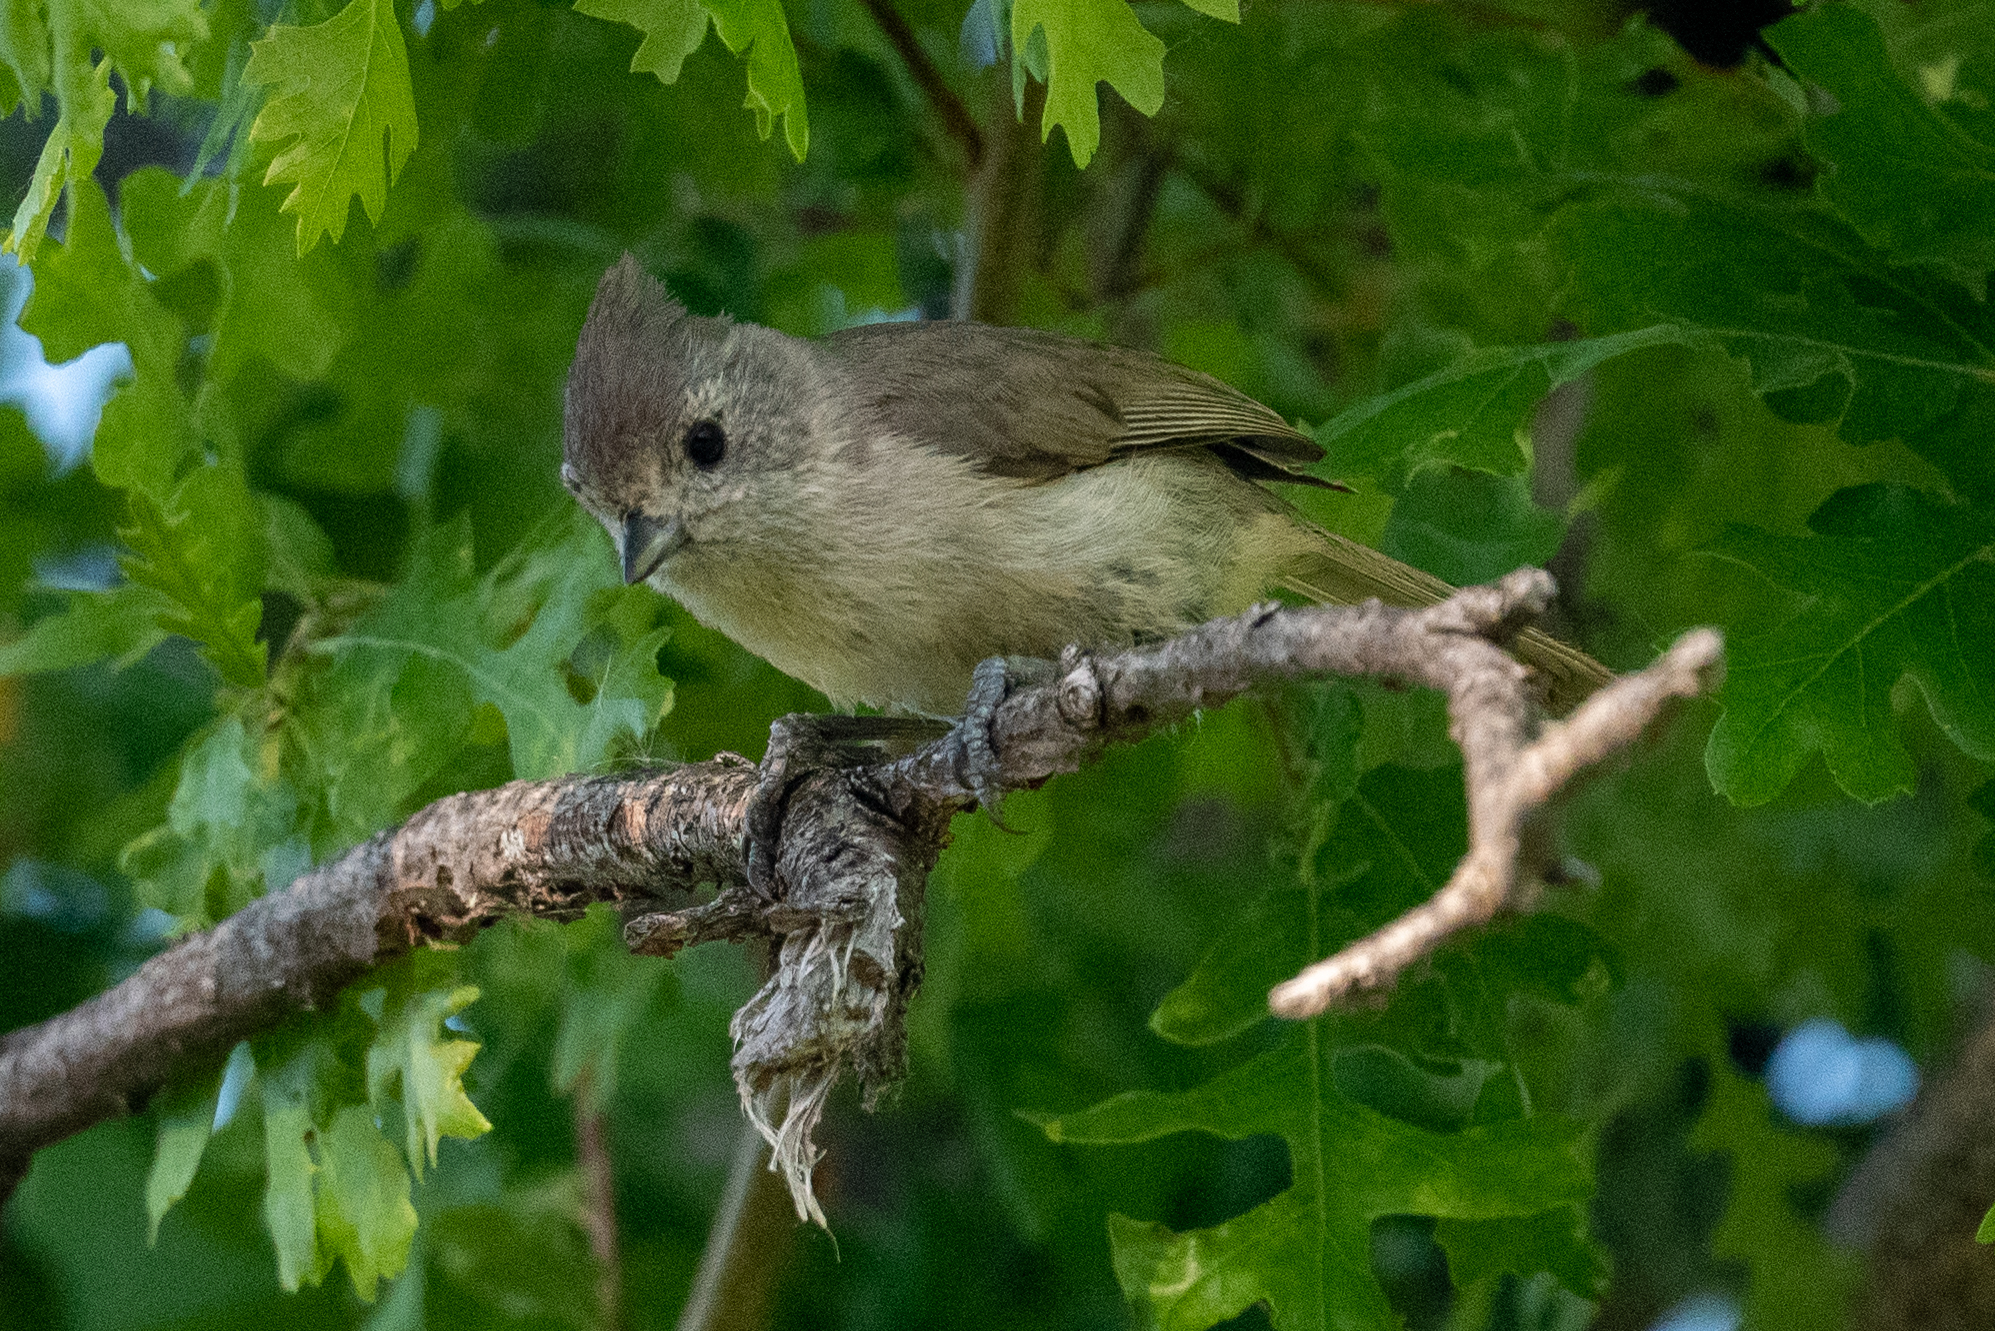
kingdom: Animalia
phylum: Chordata
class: Aves
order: Passeriformes
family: Paridae
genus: Baeolophus
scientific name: Baeolophus inornatus
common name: Oak titmouse
